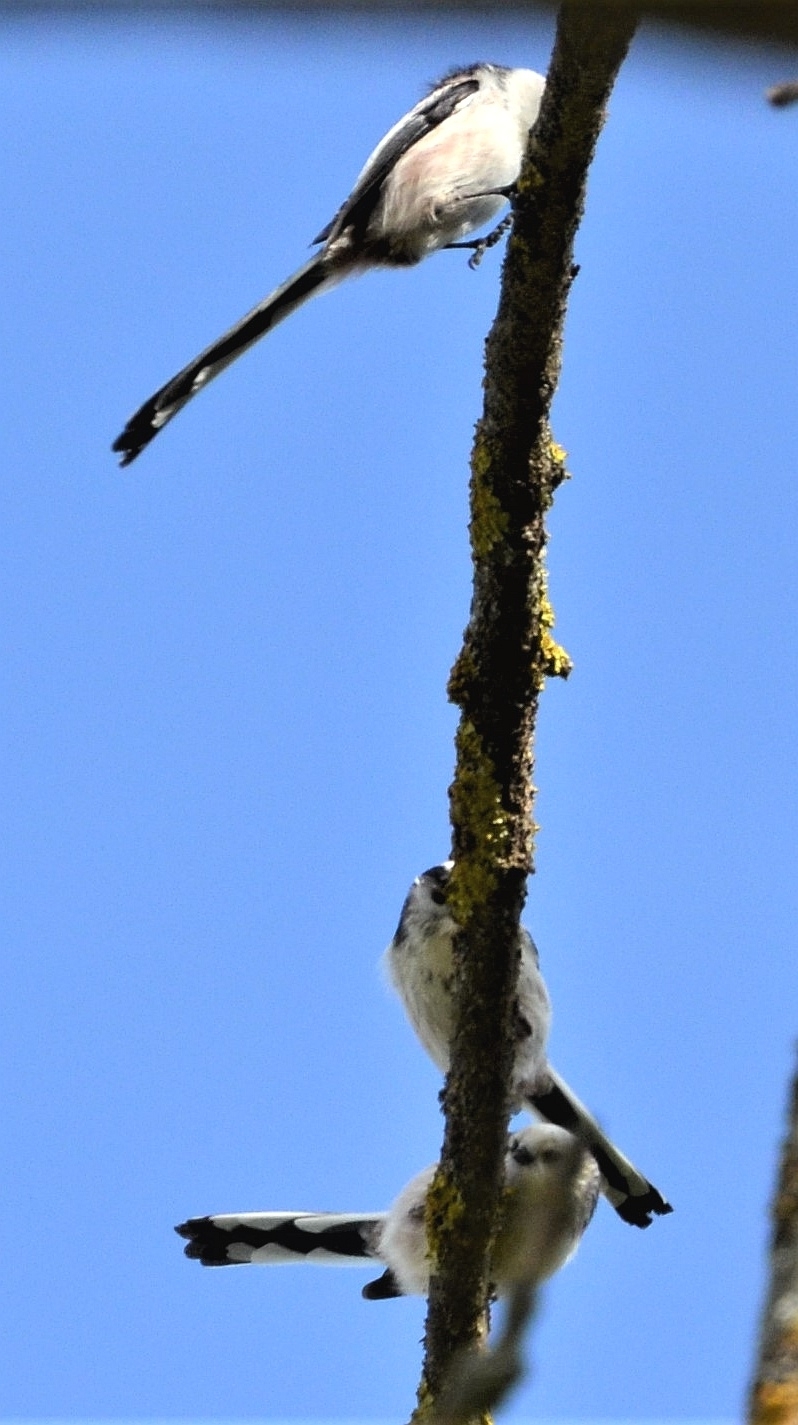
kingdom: Animalia
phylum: Chordata
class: Aves
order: Passeriformes
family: Aegithalidae
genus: Aegithalos
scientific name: Aegithalos caudatus
